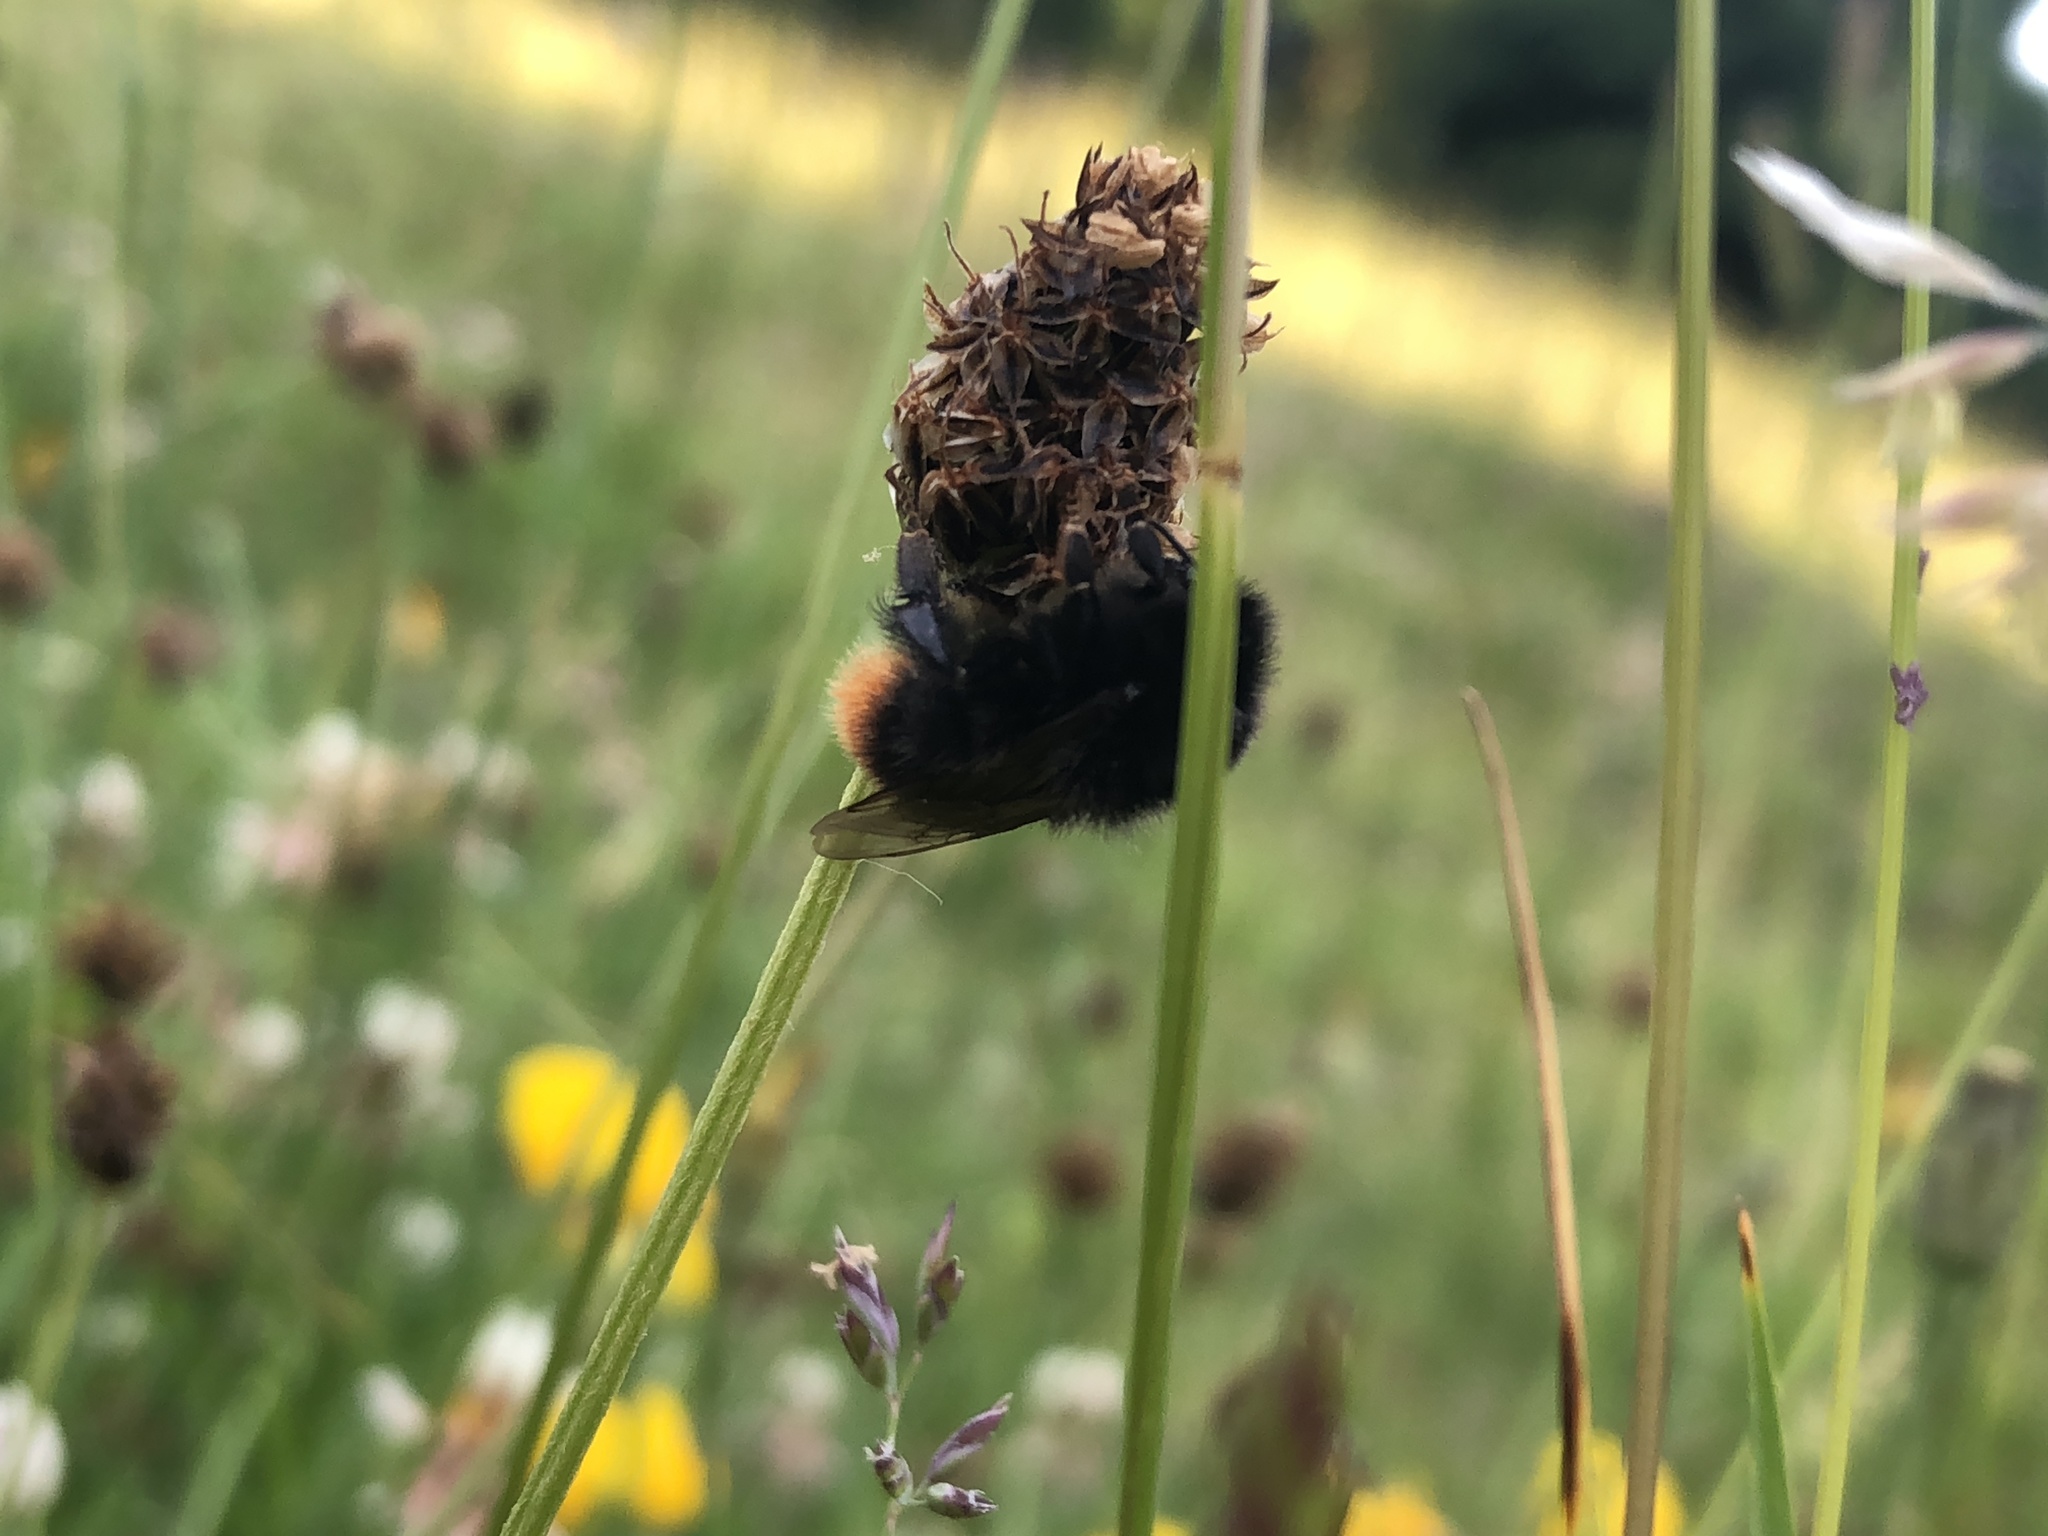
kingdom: Animalia
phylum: Arthropoda
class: Insecta
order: Hymenoptera
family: Apidae
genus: Bombus
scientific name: Bombus lapidarius
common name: Large red-tailed humble-bee
